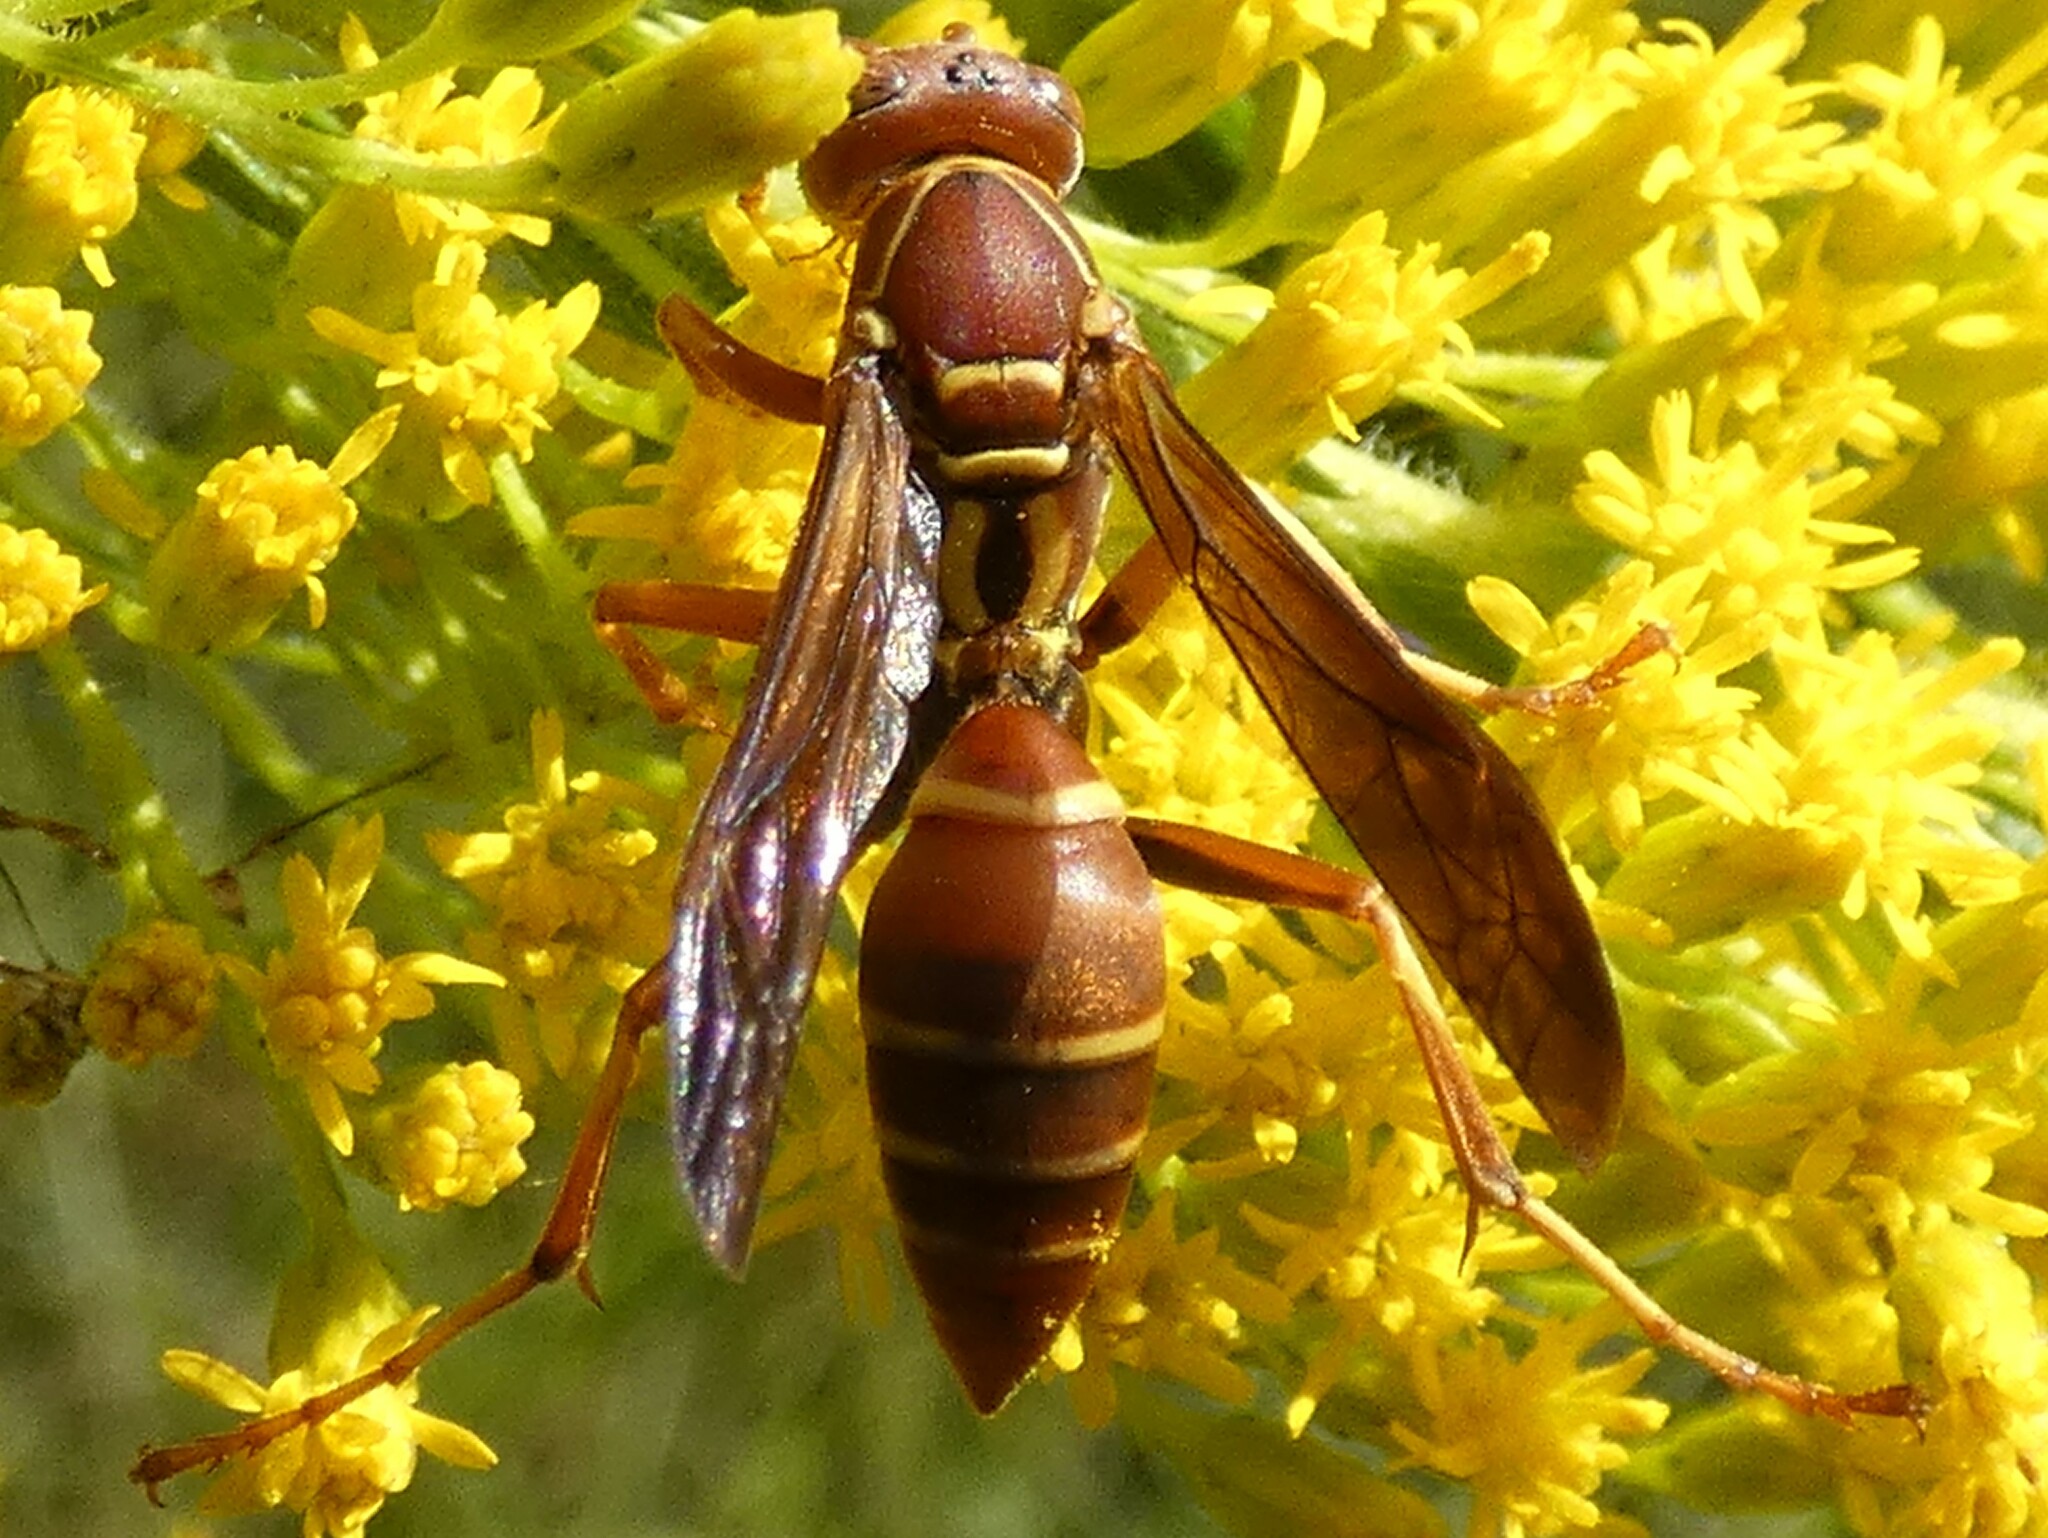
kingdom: Animalia
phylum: Arthropoda
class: Insecta
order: Hymenoptera
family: Eumenidae
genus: Polistes
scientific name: Polistes bellicosus
